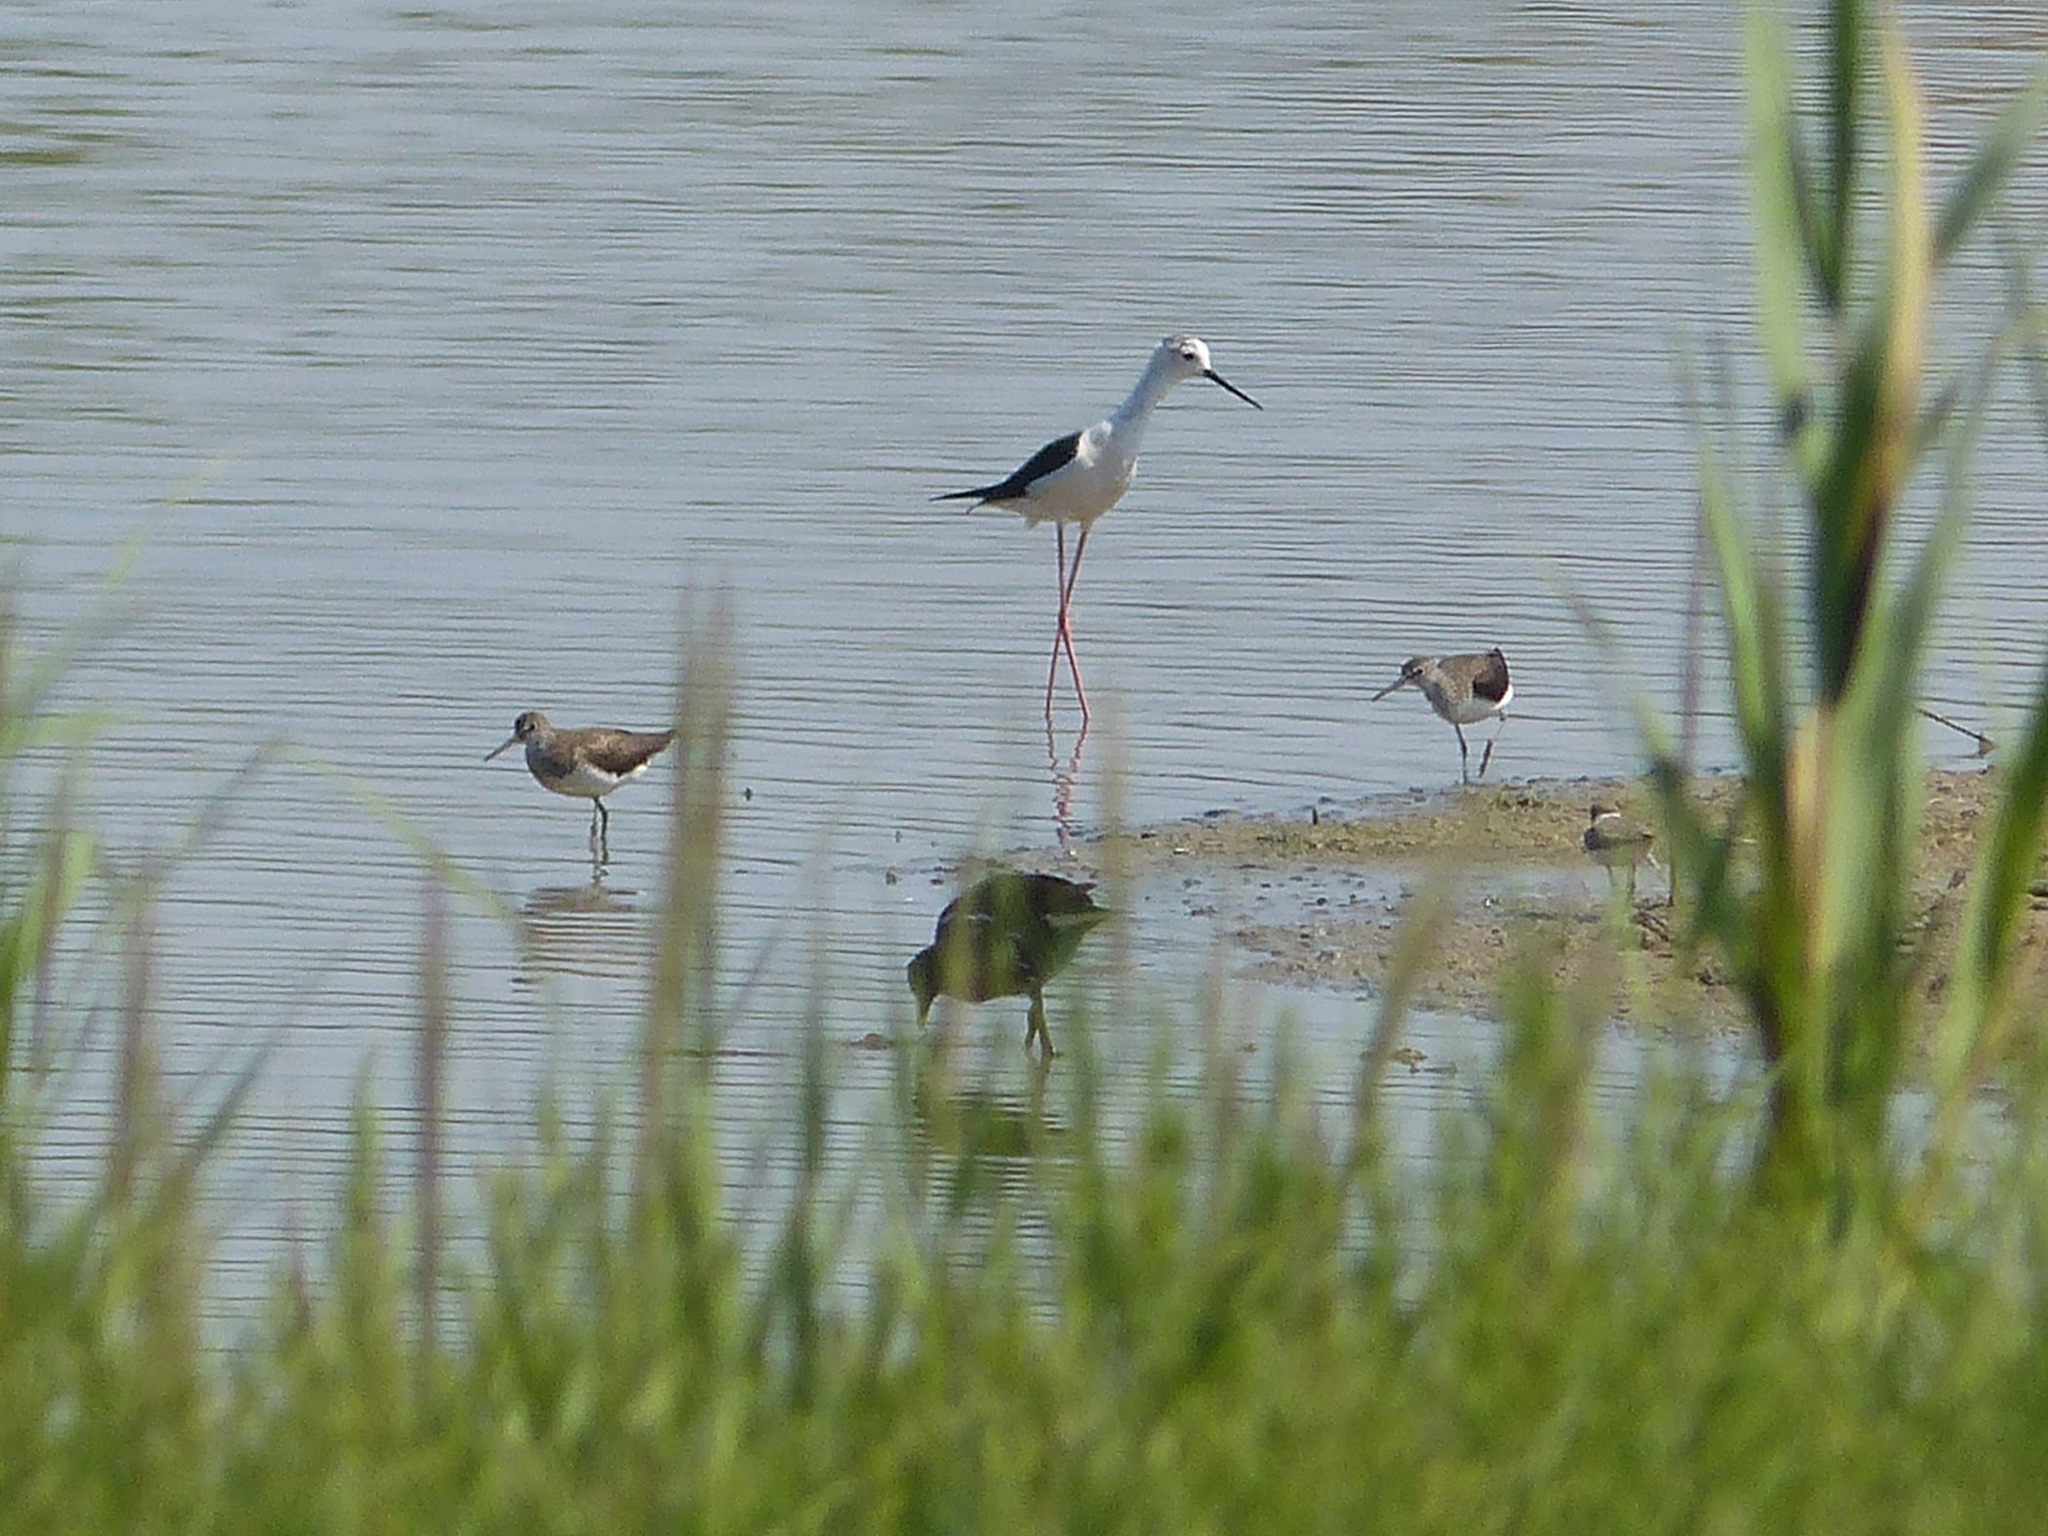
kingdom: Animalia
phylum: Chordata
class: Aves
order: Charadriiformes
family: Scolopacidae
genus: Tringa
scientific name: Tringa ochropus
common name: Green sandpiper
